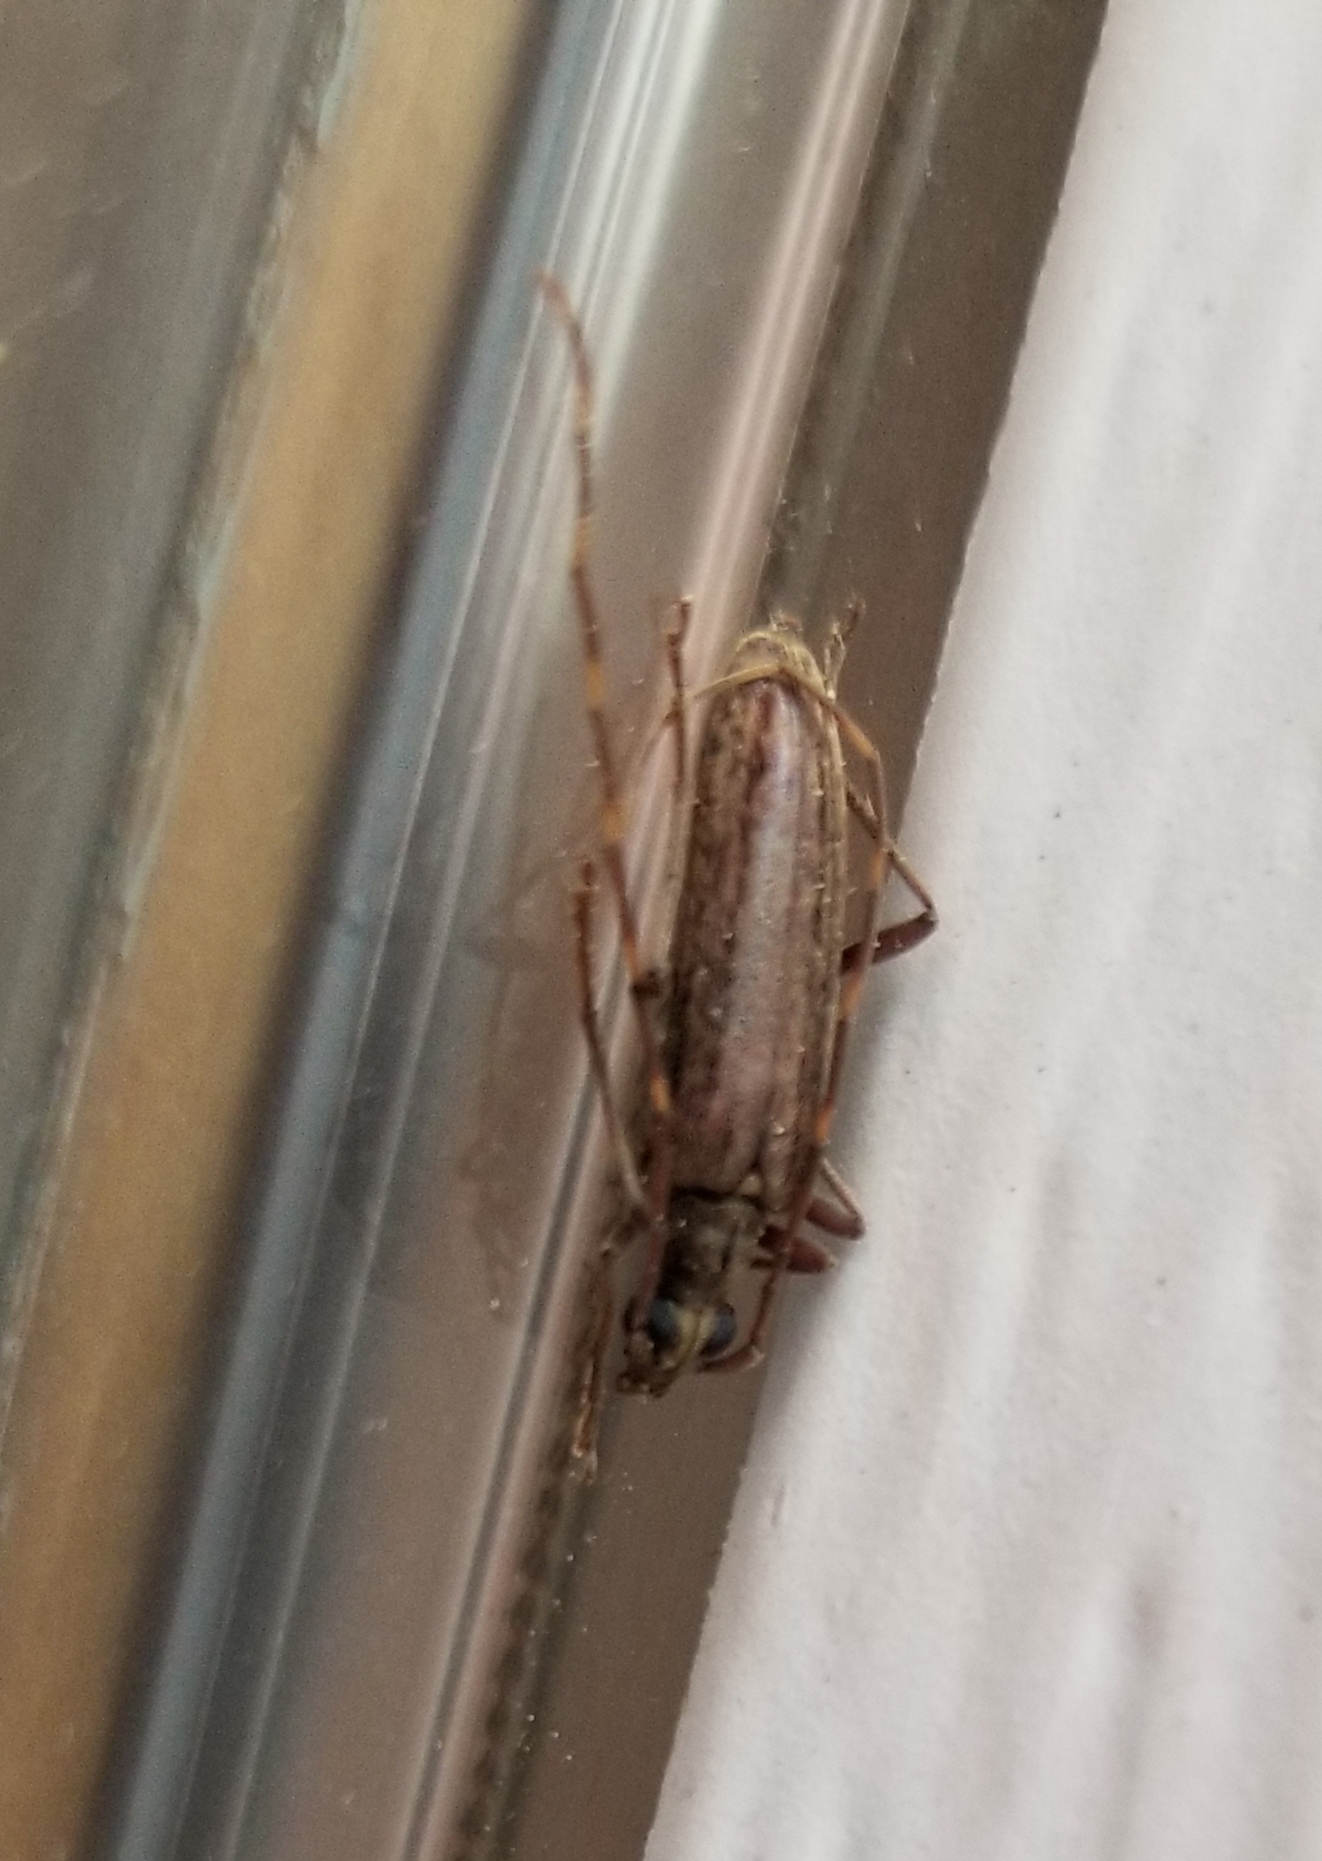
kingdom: Animalia
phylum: Arthropoda
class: Insecta
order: Coleoptera
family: Cerambycidae
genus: Centrodera
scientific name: Centrodera sublineata
